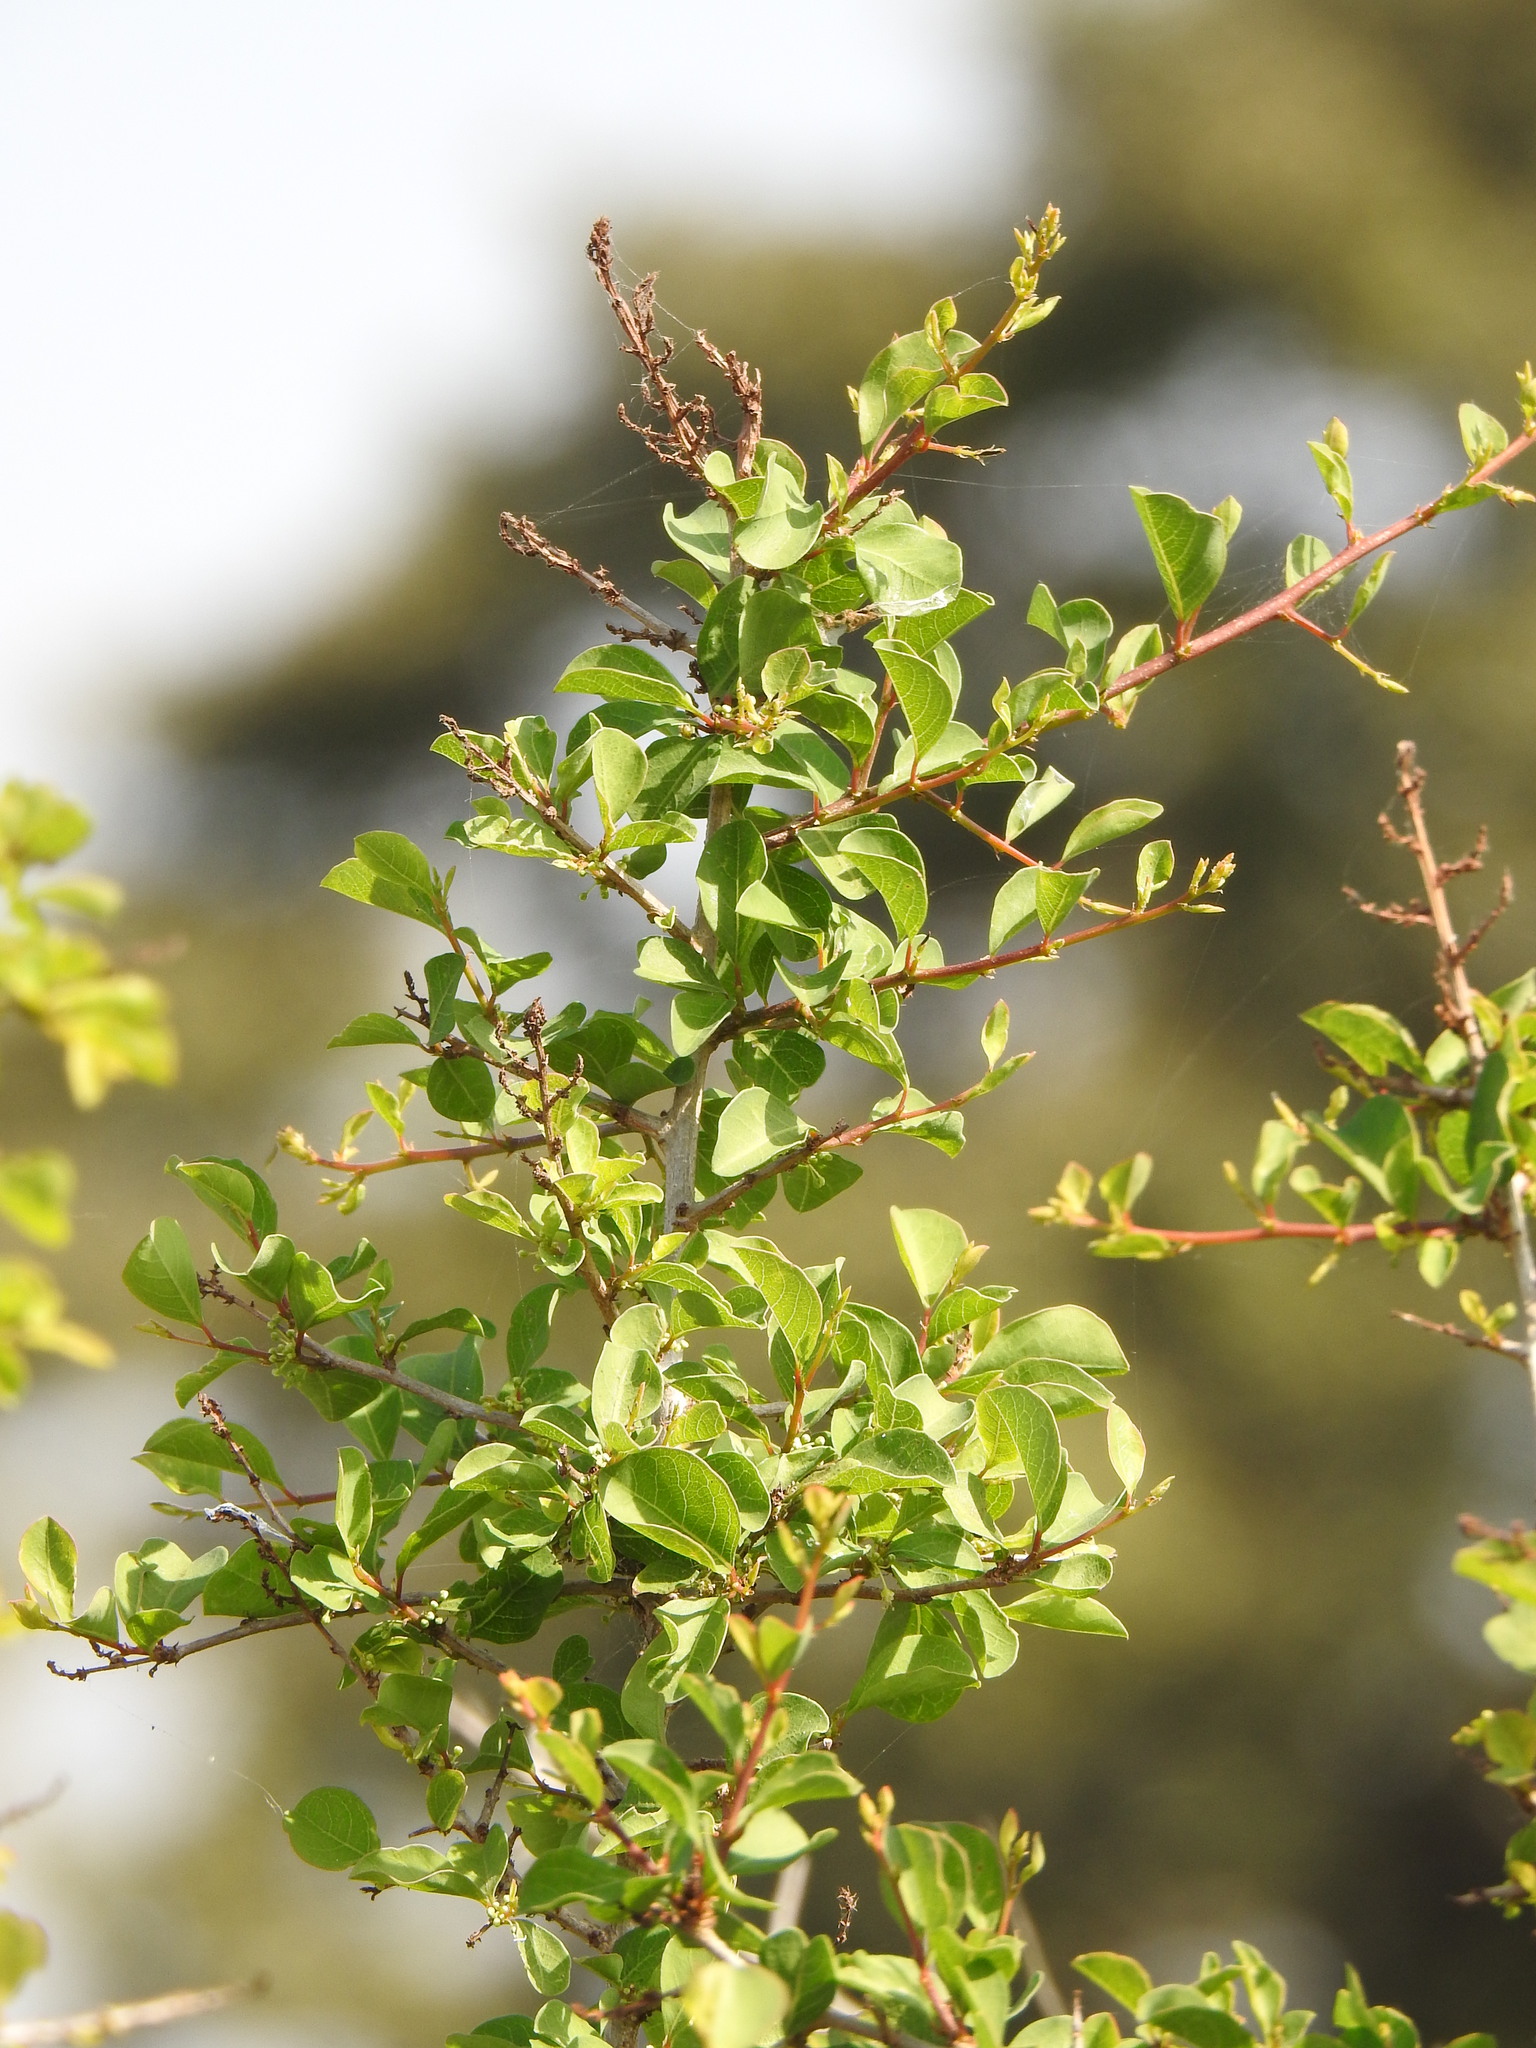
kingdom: Plantae
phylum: Tracheophyta
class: Magnoliopsida
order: Malpighiales
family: Phyllanthaceae
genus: Flueggea
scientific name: Flueggea virosa
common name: Common bushweed
